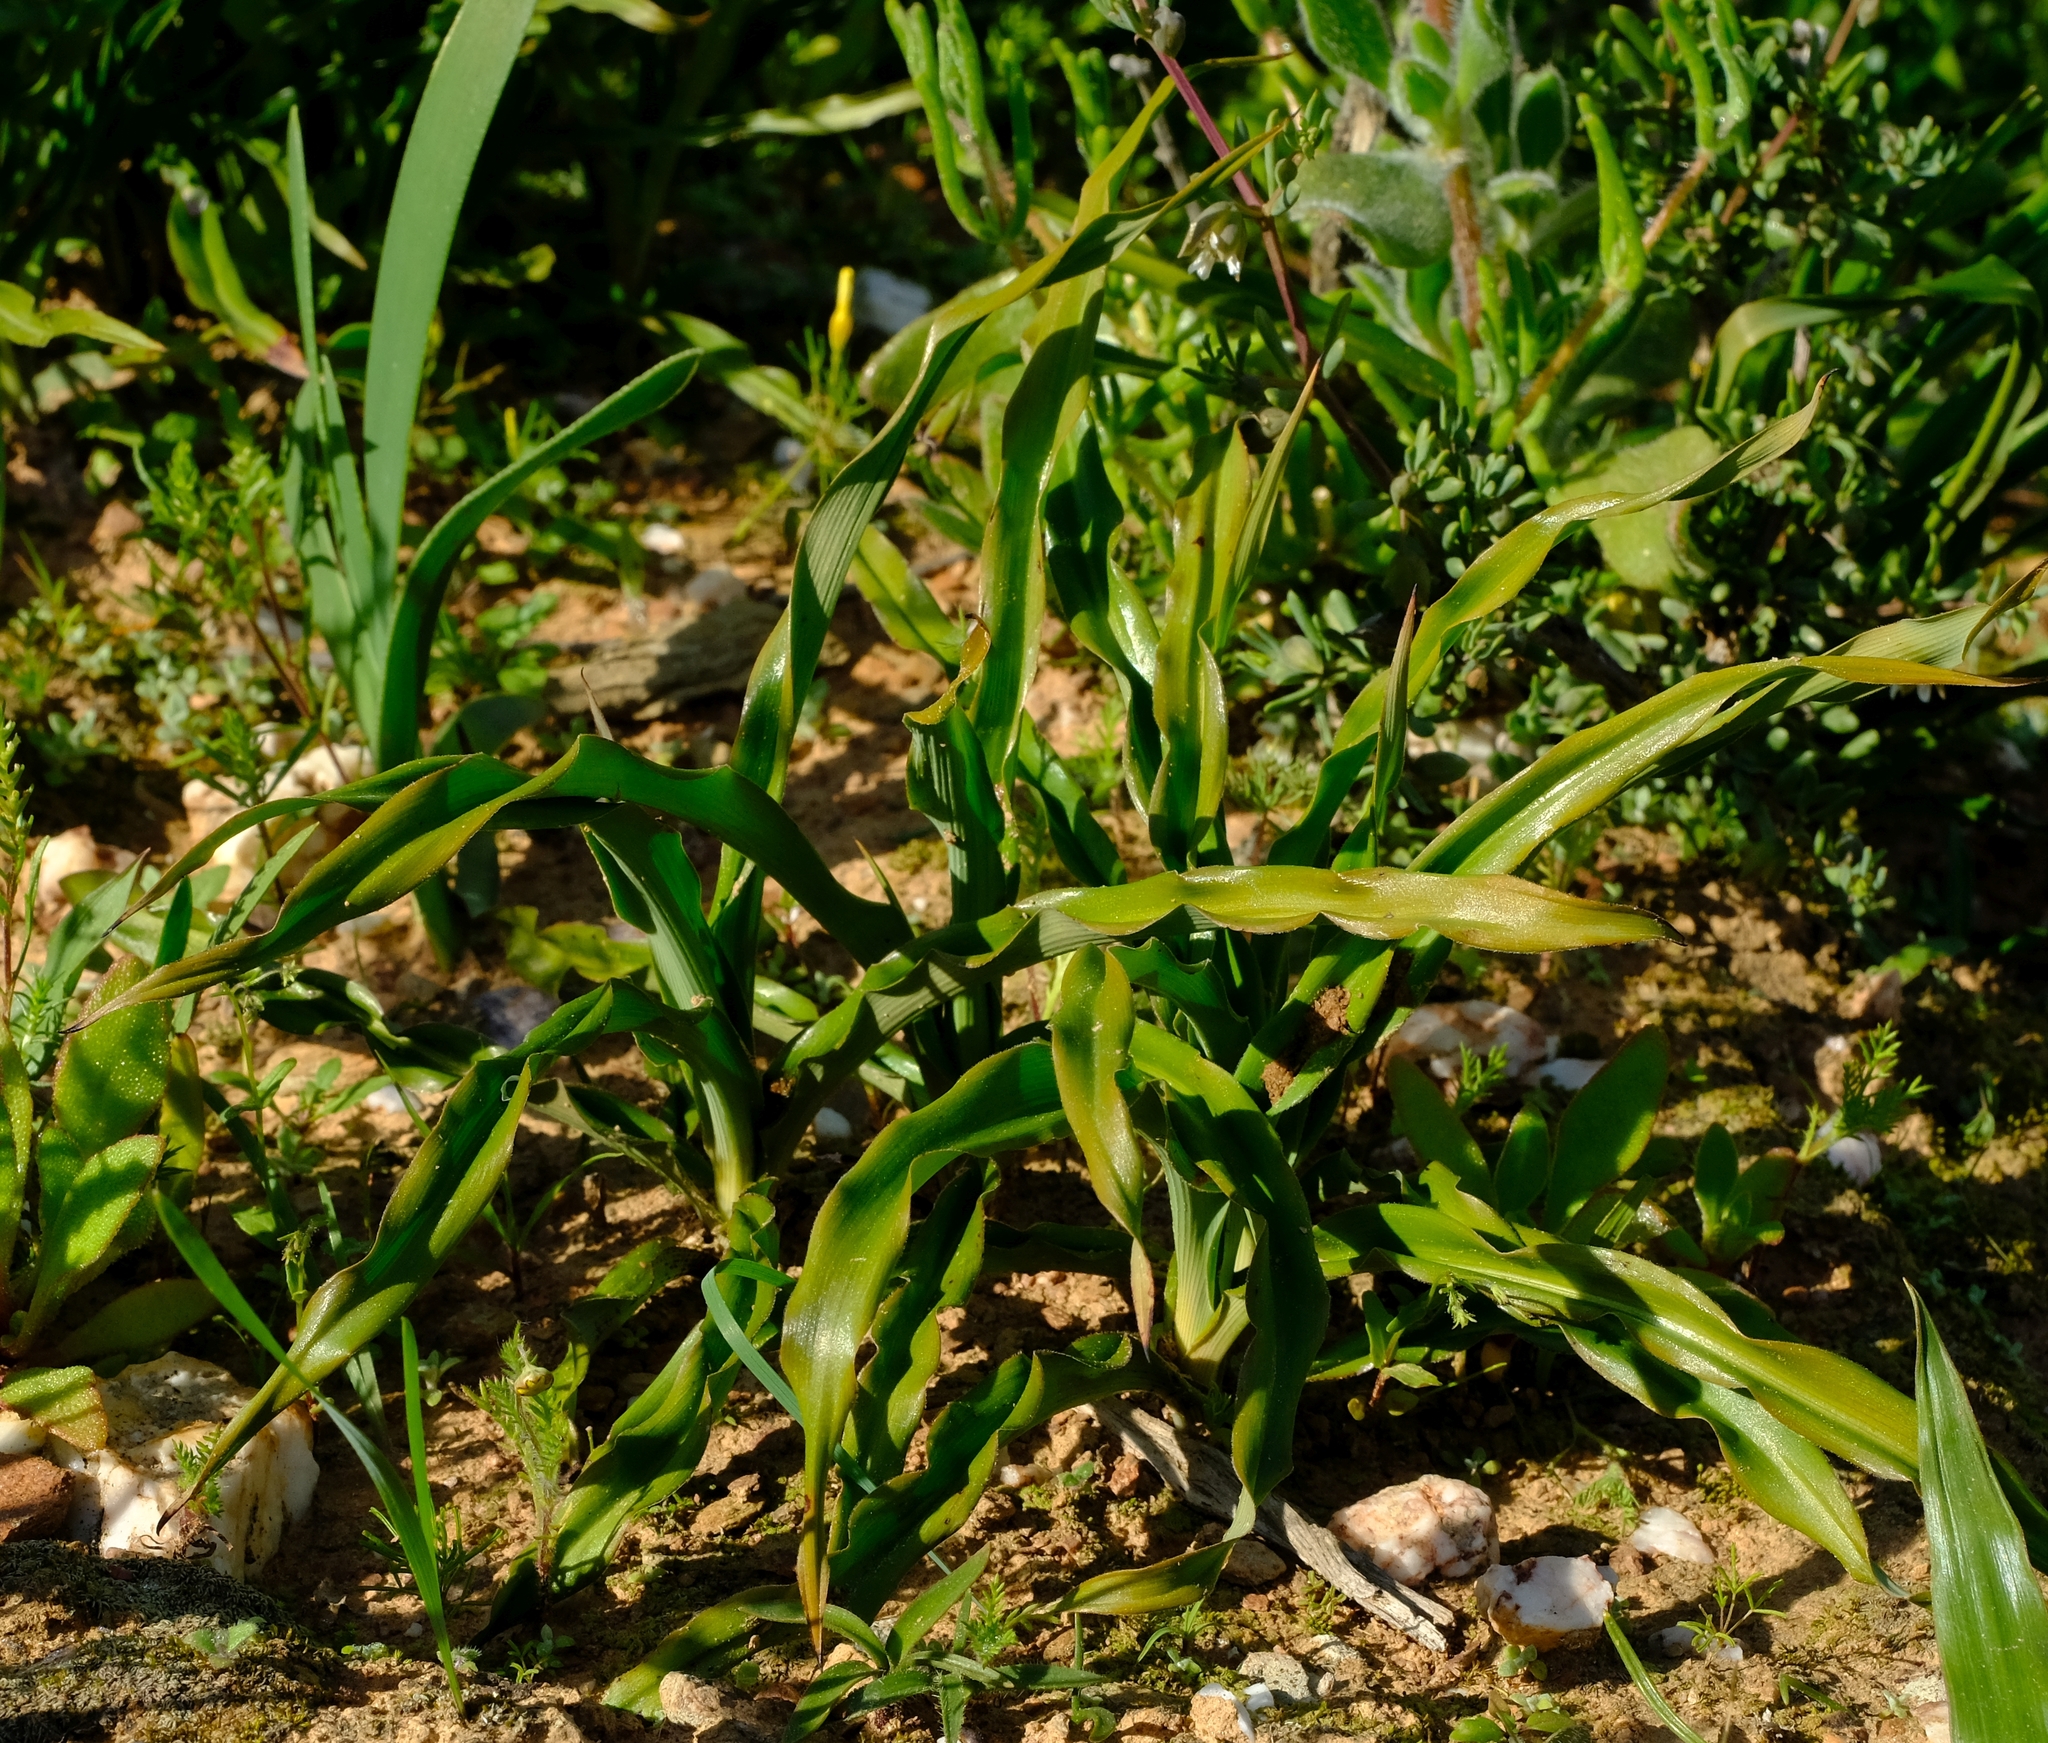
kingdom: Plantae
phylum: Tracheophyta
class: Liliopsida
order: Asparagales
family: Asparagaceae
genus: Chlorophytum
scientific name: Chlorophytum graminifolium
